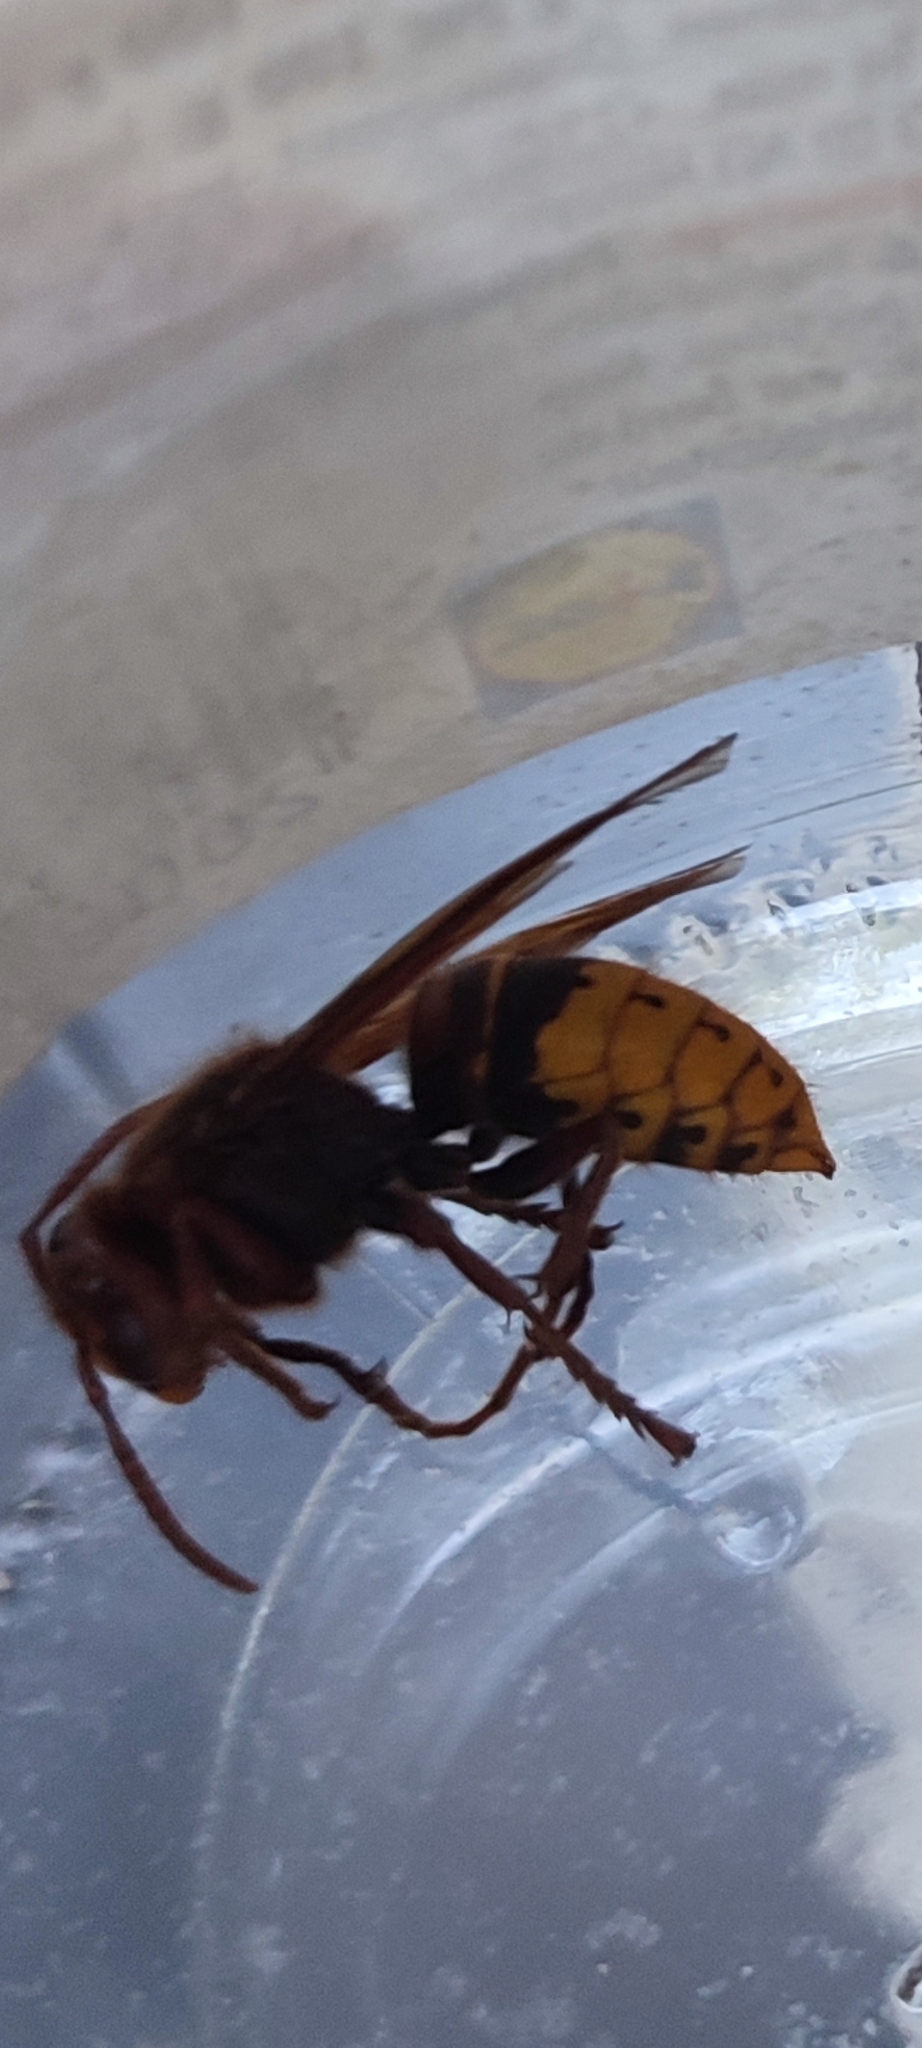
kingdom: Animalia
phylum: Arthropoda
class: Insecta
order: Hymenoptera
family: Vespidae
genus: Vespa
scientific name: Vespa crabro
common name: Hornet
